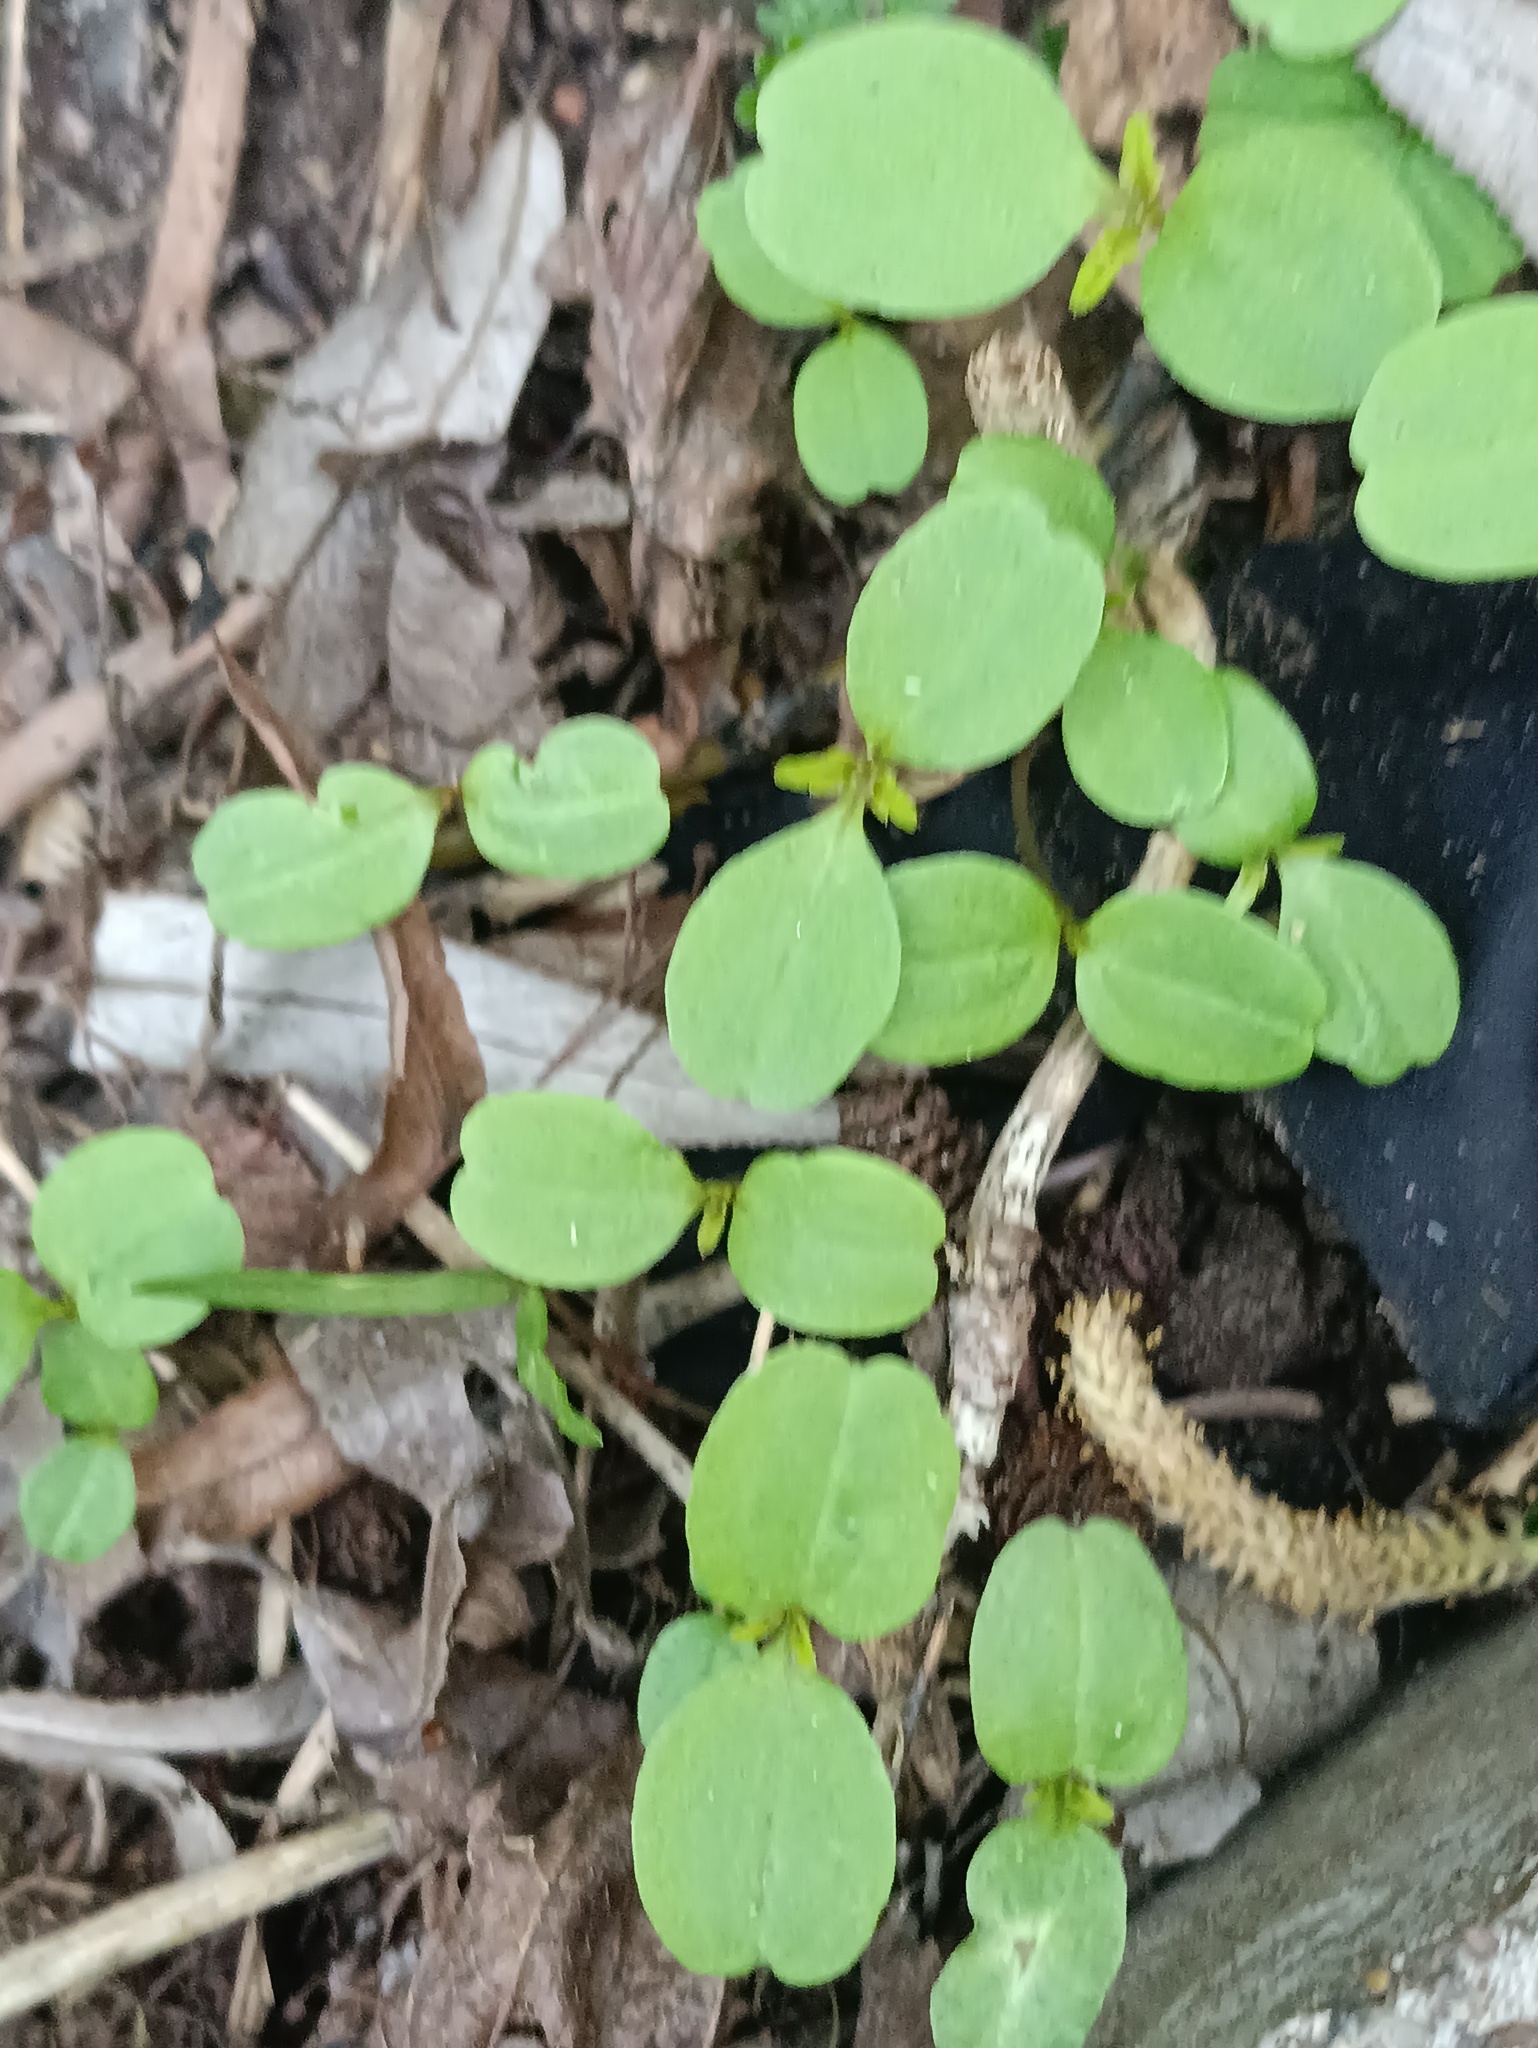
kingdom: Plantae
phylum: Tracheophyta
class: Magnoliopsida
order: Ericales
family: Balsaminaceae
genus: Impatiens
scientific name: Impatiens parviflora
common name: Small balsam
